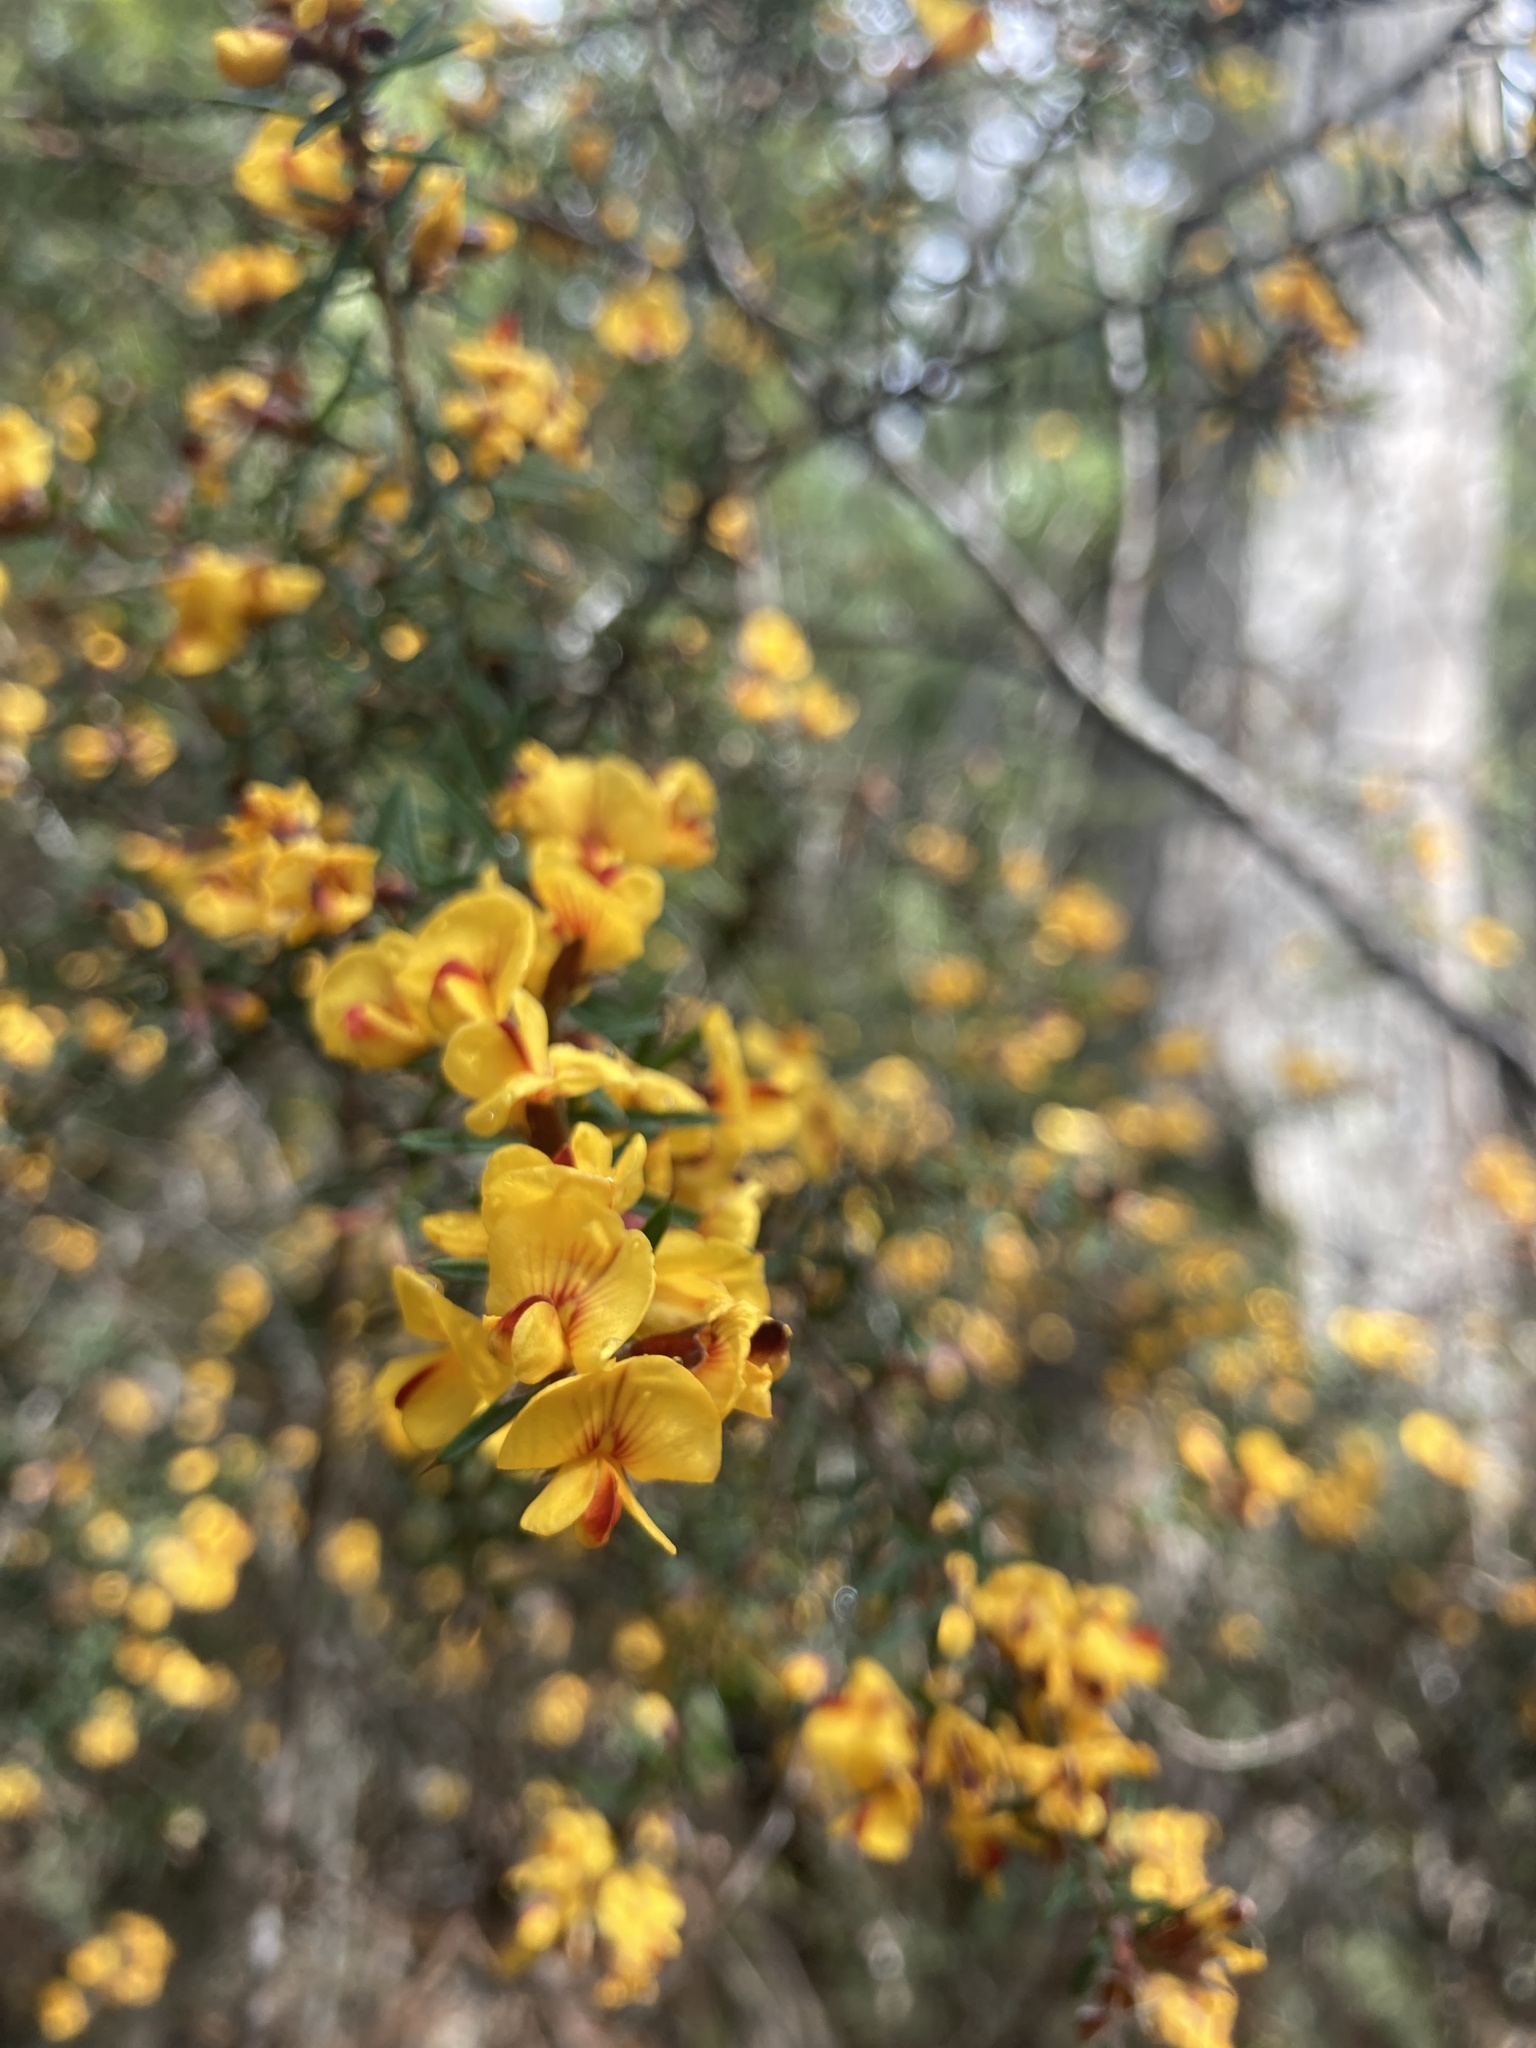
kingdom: Plantae
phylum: Tracheophyta
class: Magnoliopsida
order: Fabales
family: Fabaceae
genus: Pultenaea
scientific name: Pultenaea juniperina
